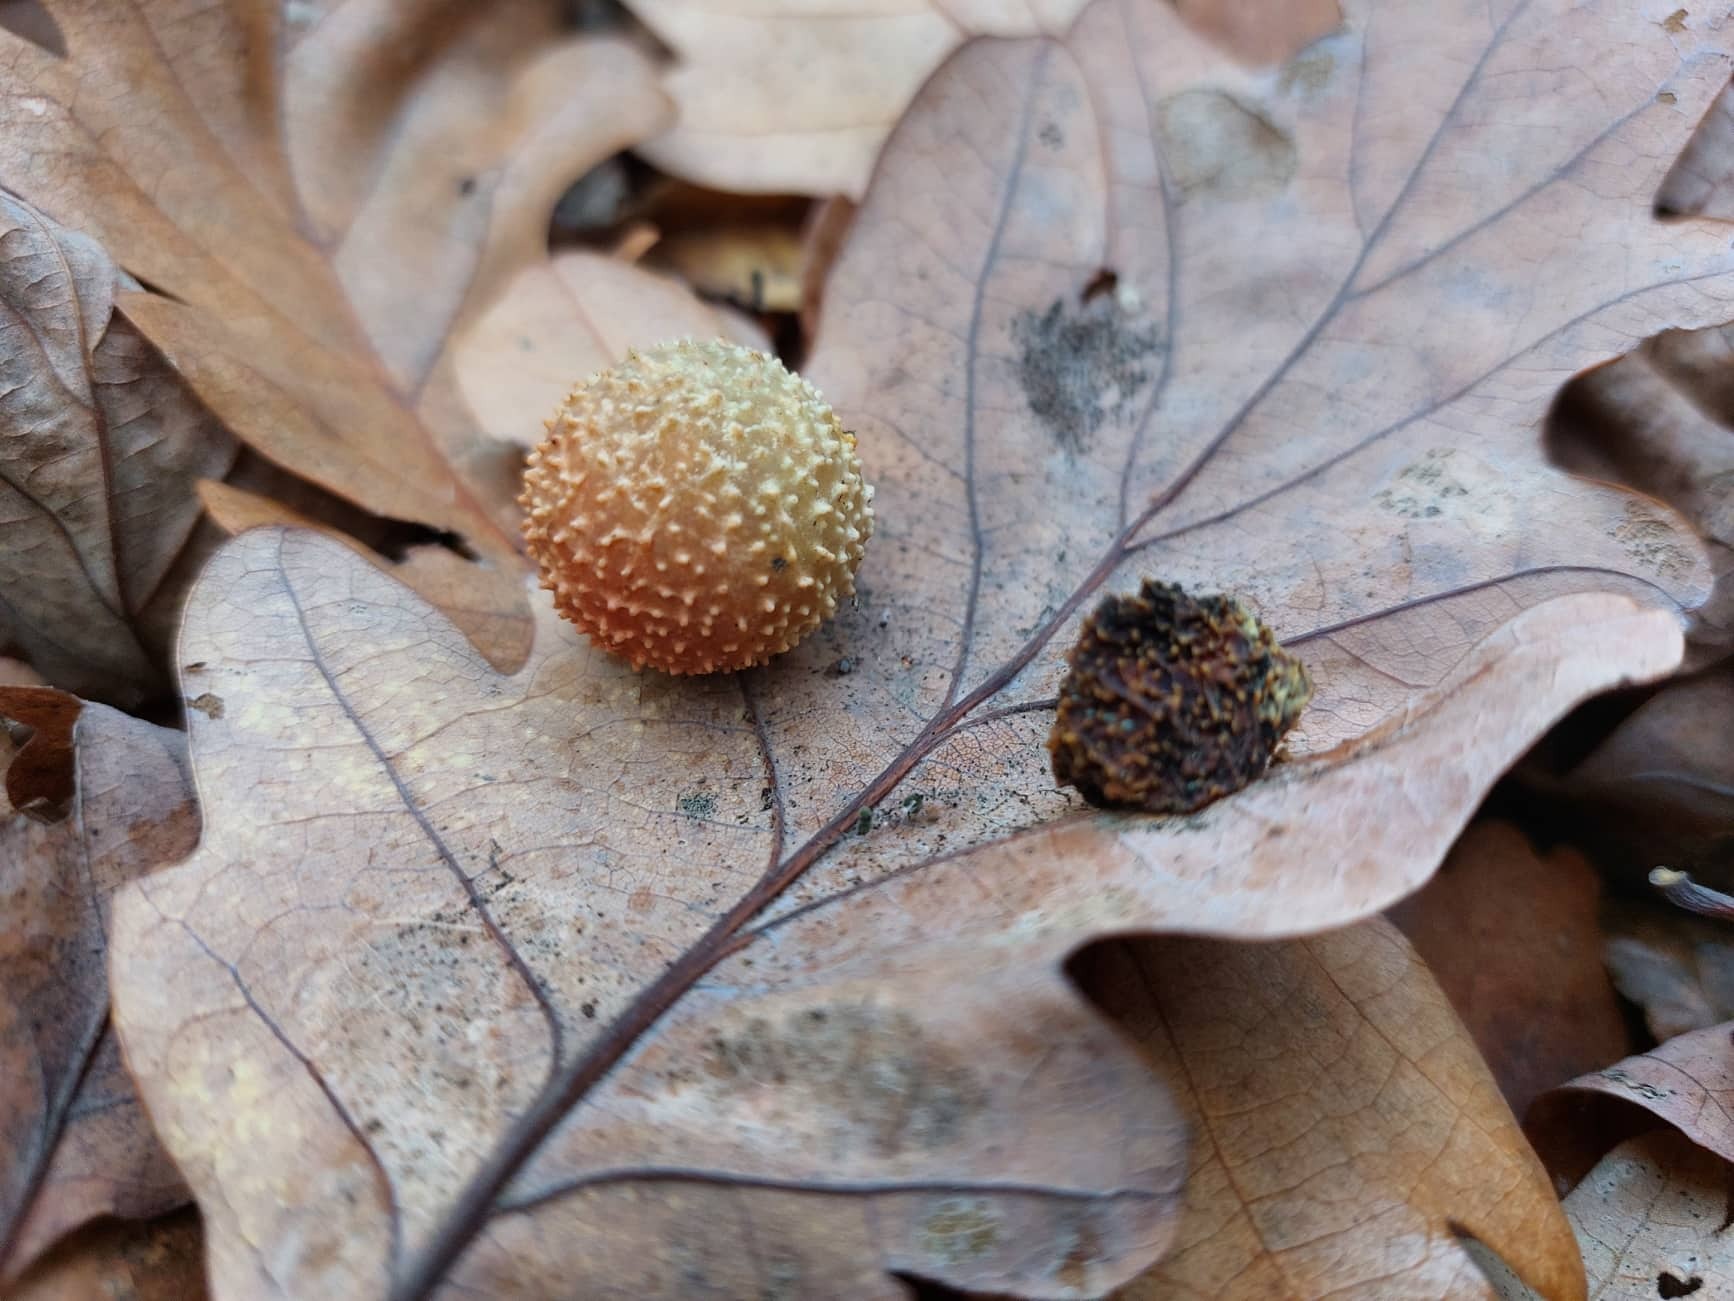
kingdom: Animalia
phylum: Arthropoda
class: Insecta
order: Hymenoptera
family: Cynipidae
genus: Cynips
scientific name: Cynips quercusfolii
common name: Cherry gall
